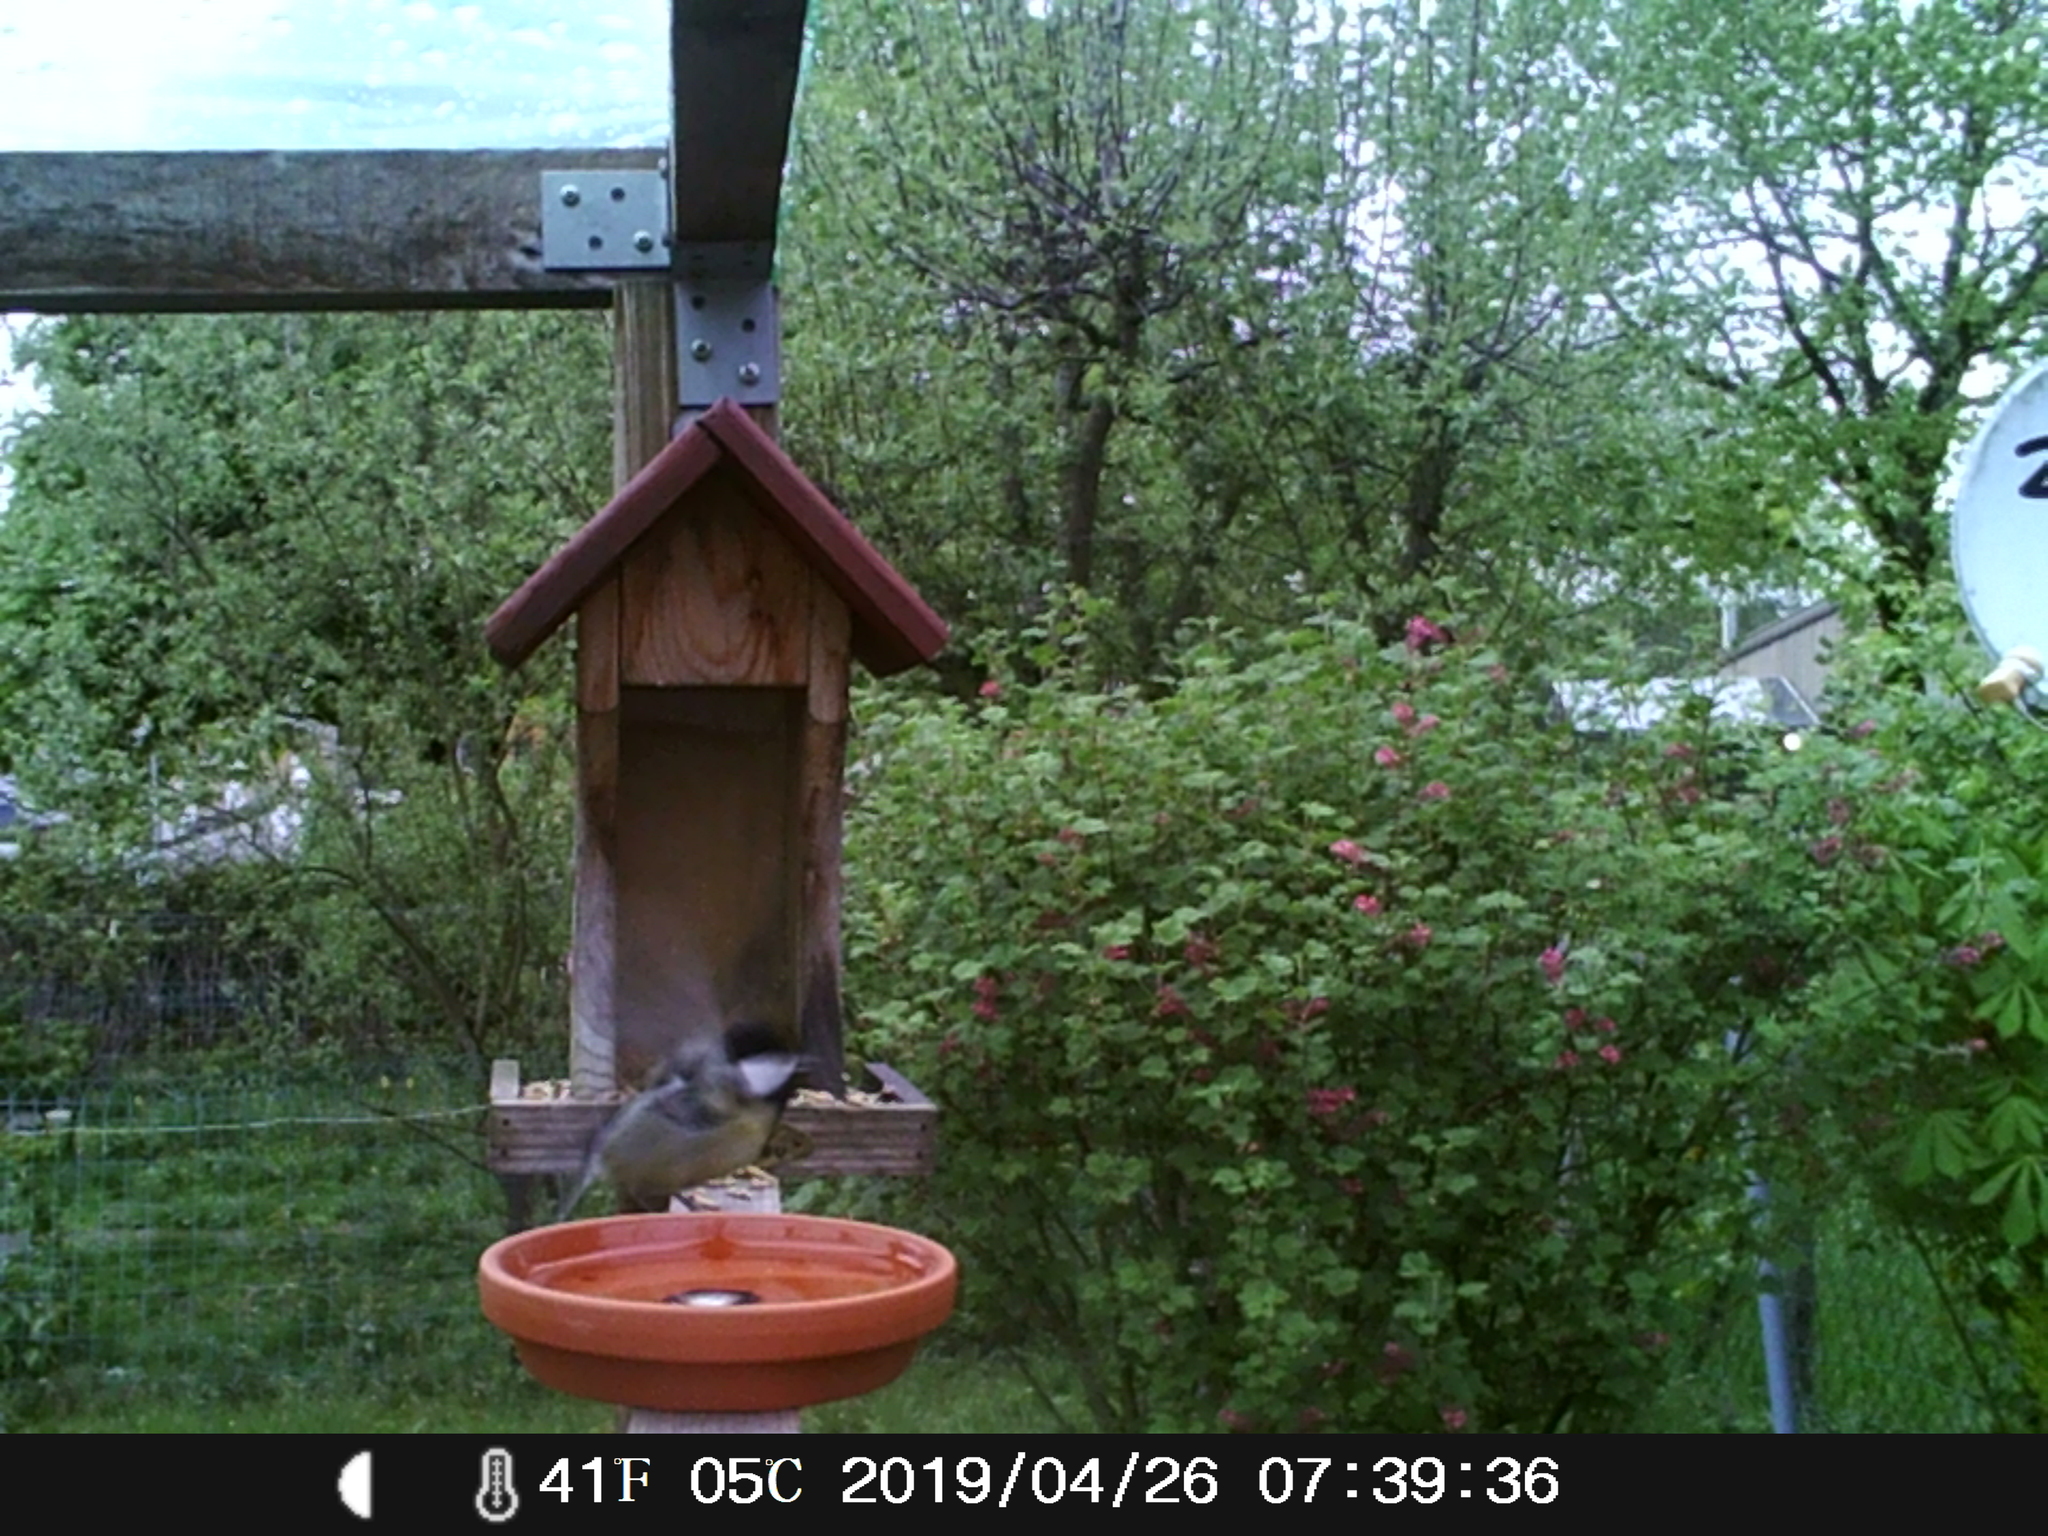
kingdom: Animalia
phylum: Chordata
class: Aves
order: Passeriformes
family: Paridae
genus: Parus
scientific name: Parus major
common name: Great tit
